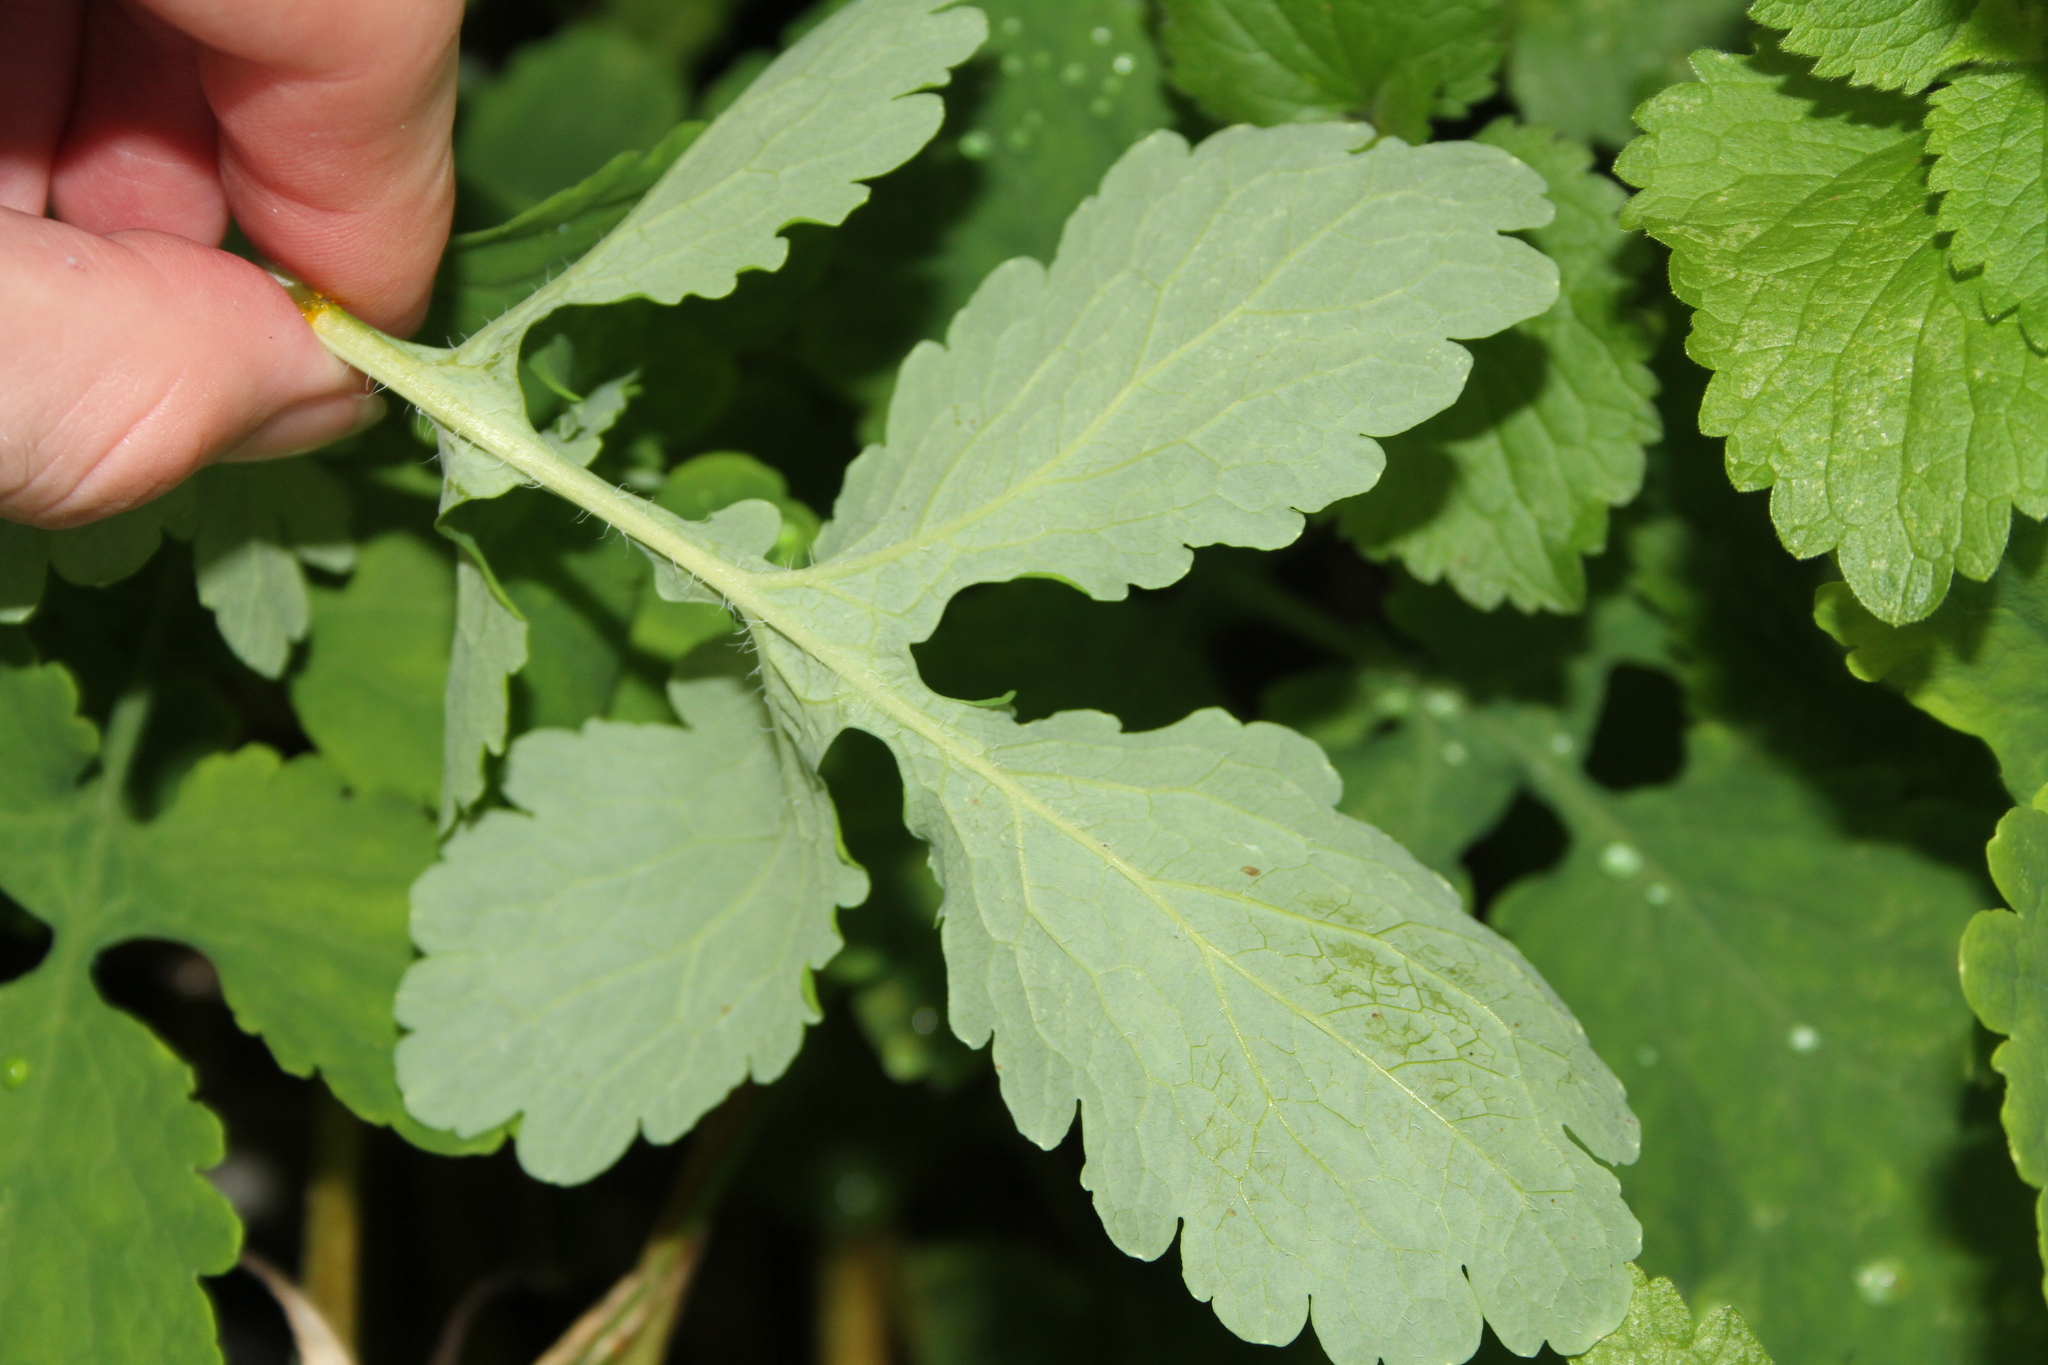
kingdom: Plantae
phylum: Tracheophyta
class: Magnoliopsida
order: Ranunculales
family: Papaveraceae
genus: Chelidonium
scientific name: Chelidonium majus
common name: Greater celandine
